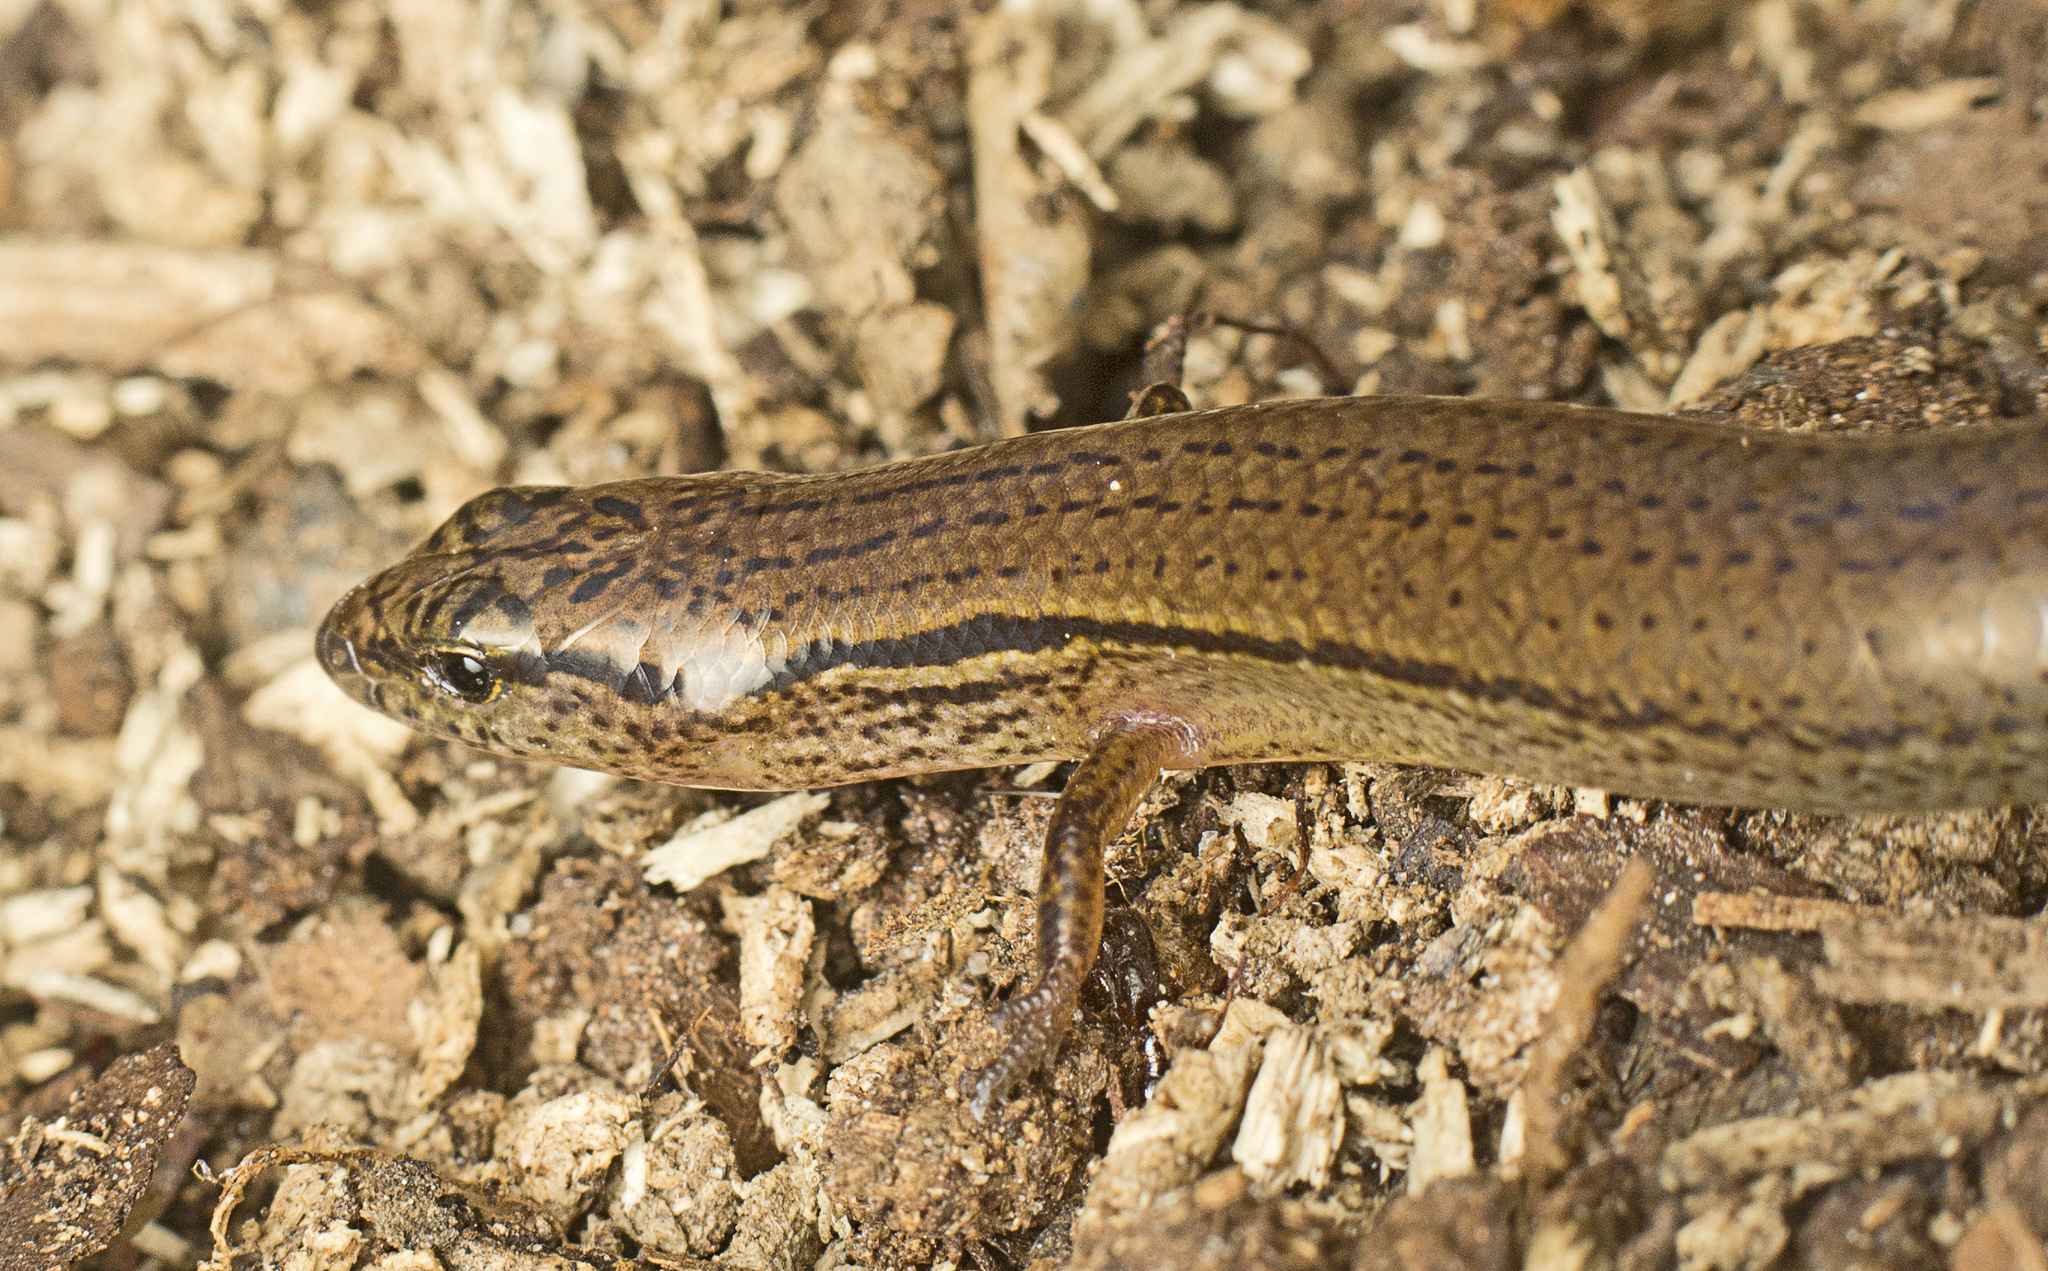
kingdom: Animalia
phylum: Chordata
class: Squamata
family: Scincidae
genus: Calyptotis
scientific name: Calyptotis scutirostrum
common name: Scute-snouted calyptotis
